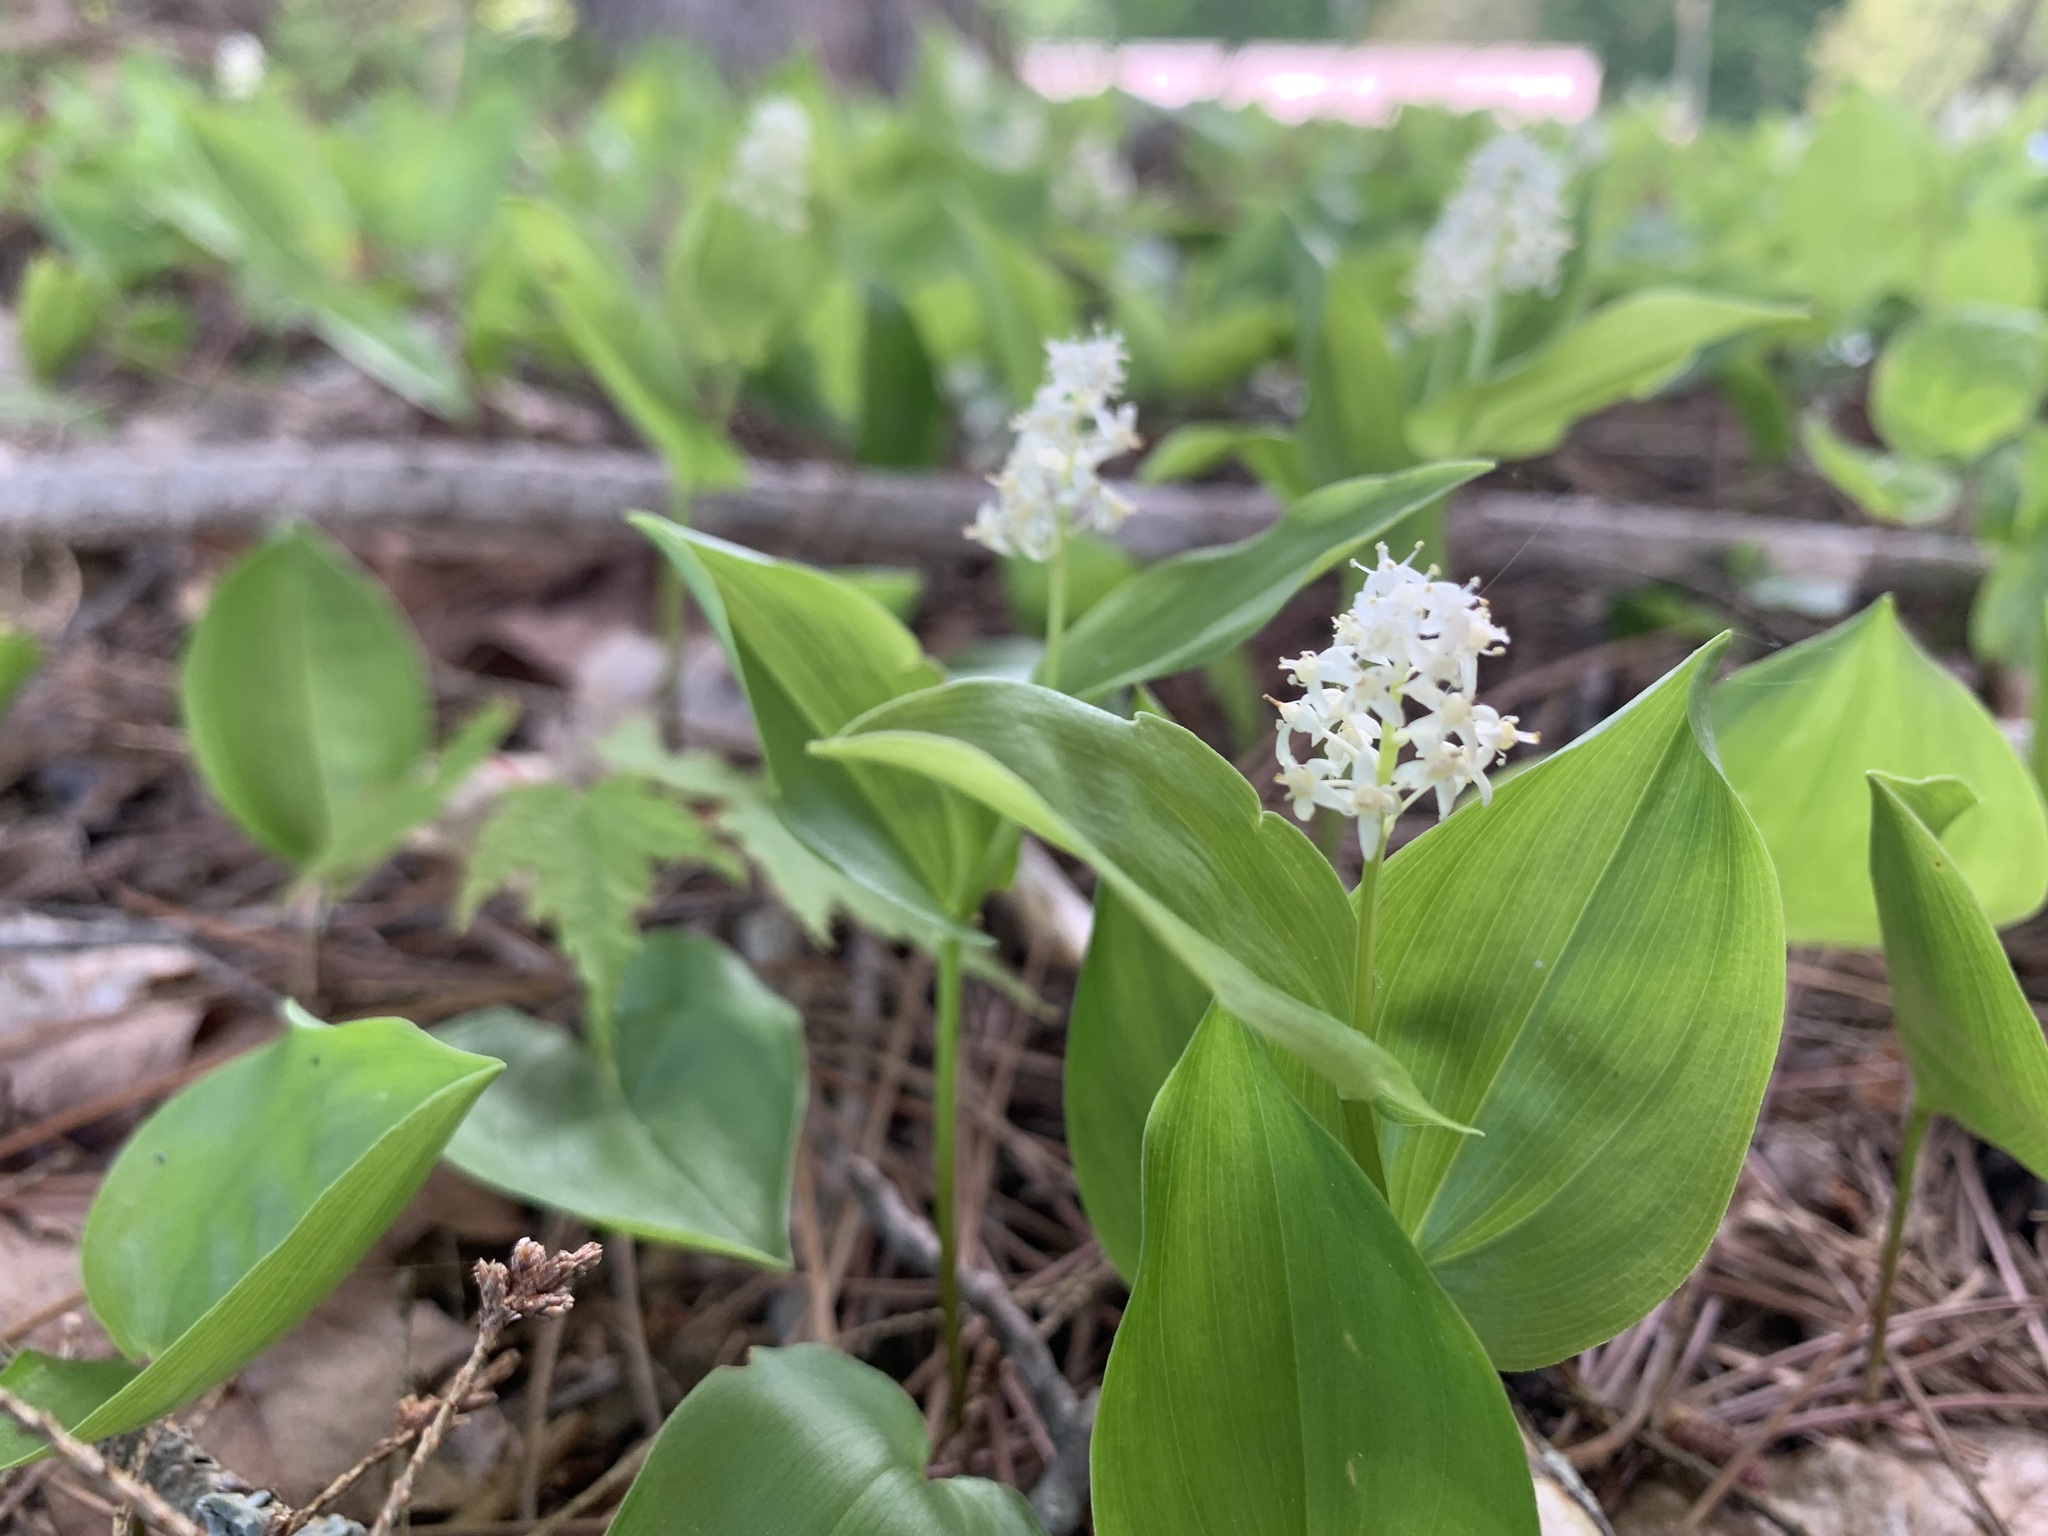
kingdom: Plantae
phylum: Tracheophyta
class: Liliopsida
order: Asparagales
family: Asparagaceae
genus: Maianthemum
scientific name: Maianthemum canadense
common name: False lily-of-the-valley
